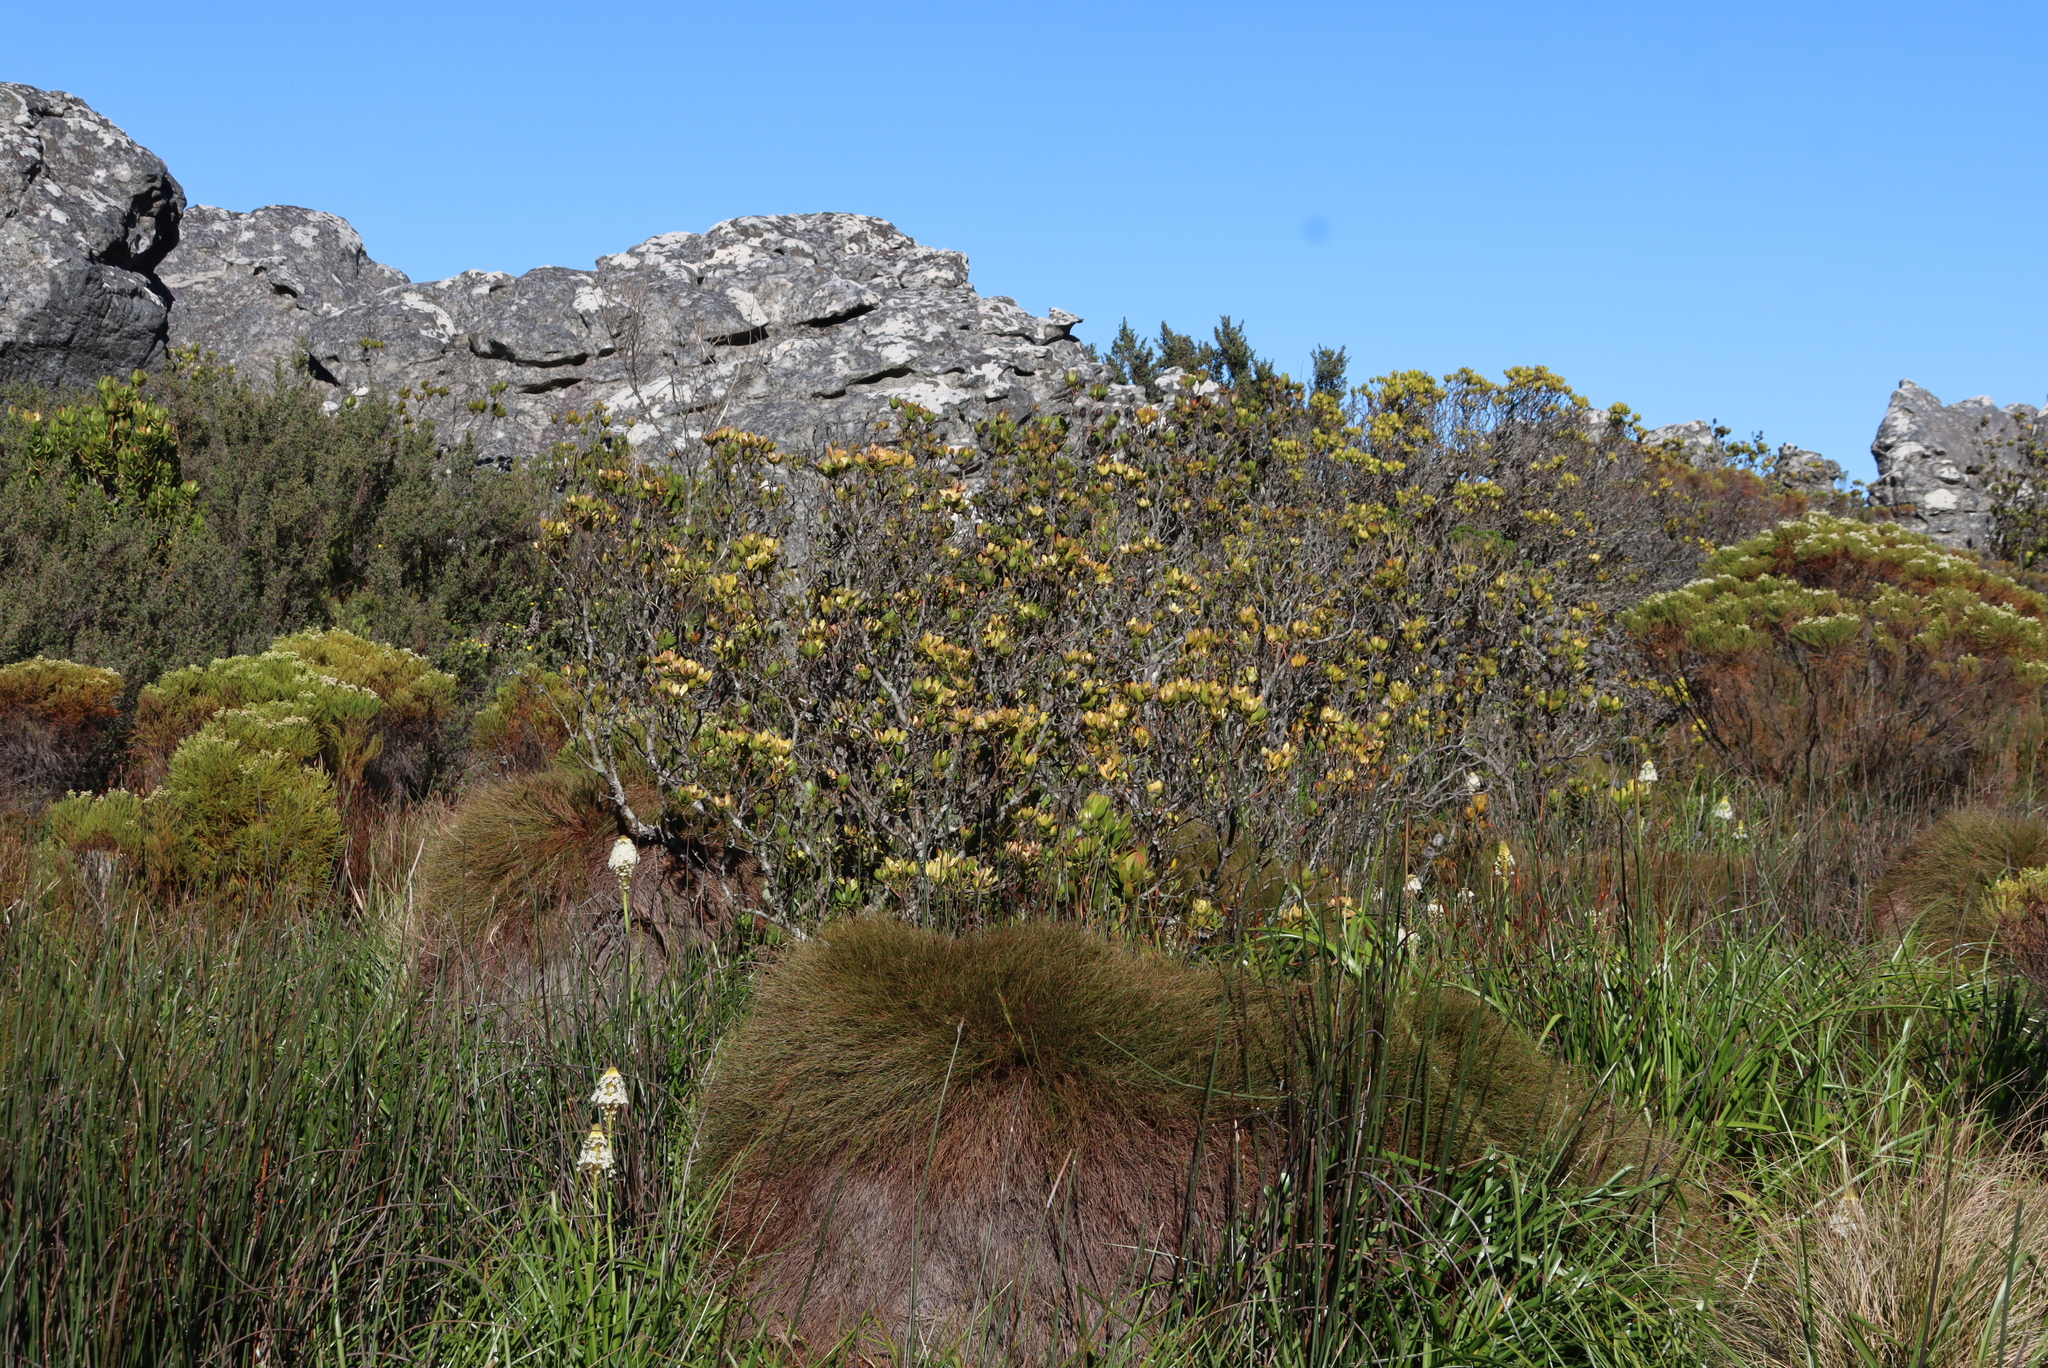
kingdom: Plantae
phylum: Tracheophyta
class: Magnoliopsida
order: Proteales
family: Proteaceae
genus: Leucadendron
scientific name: Leucadendron strobilinum
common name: Mountain rose
